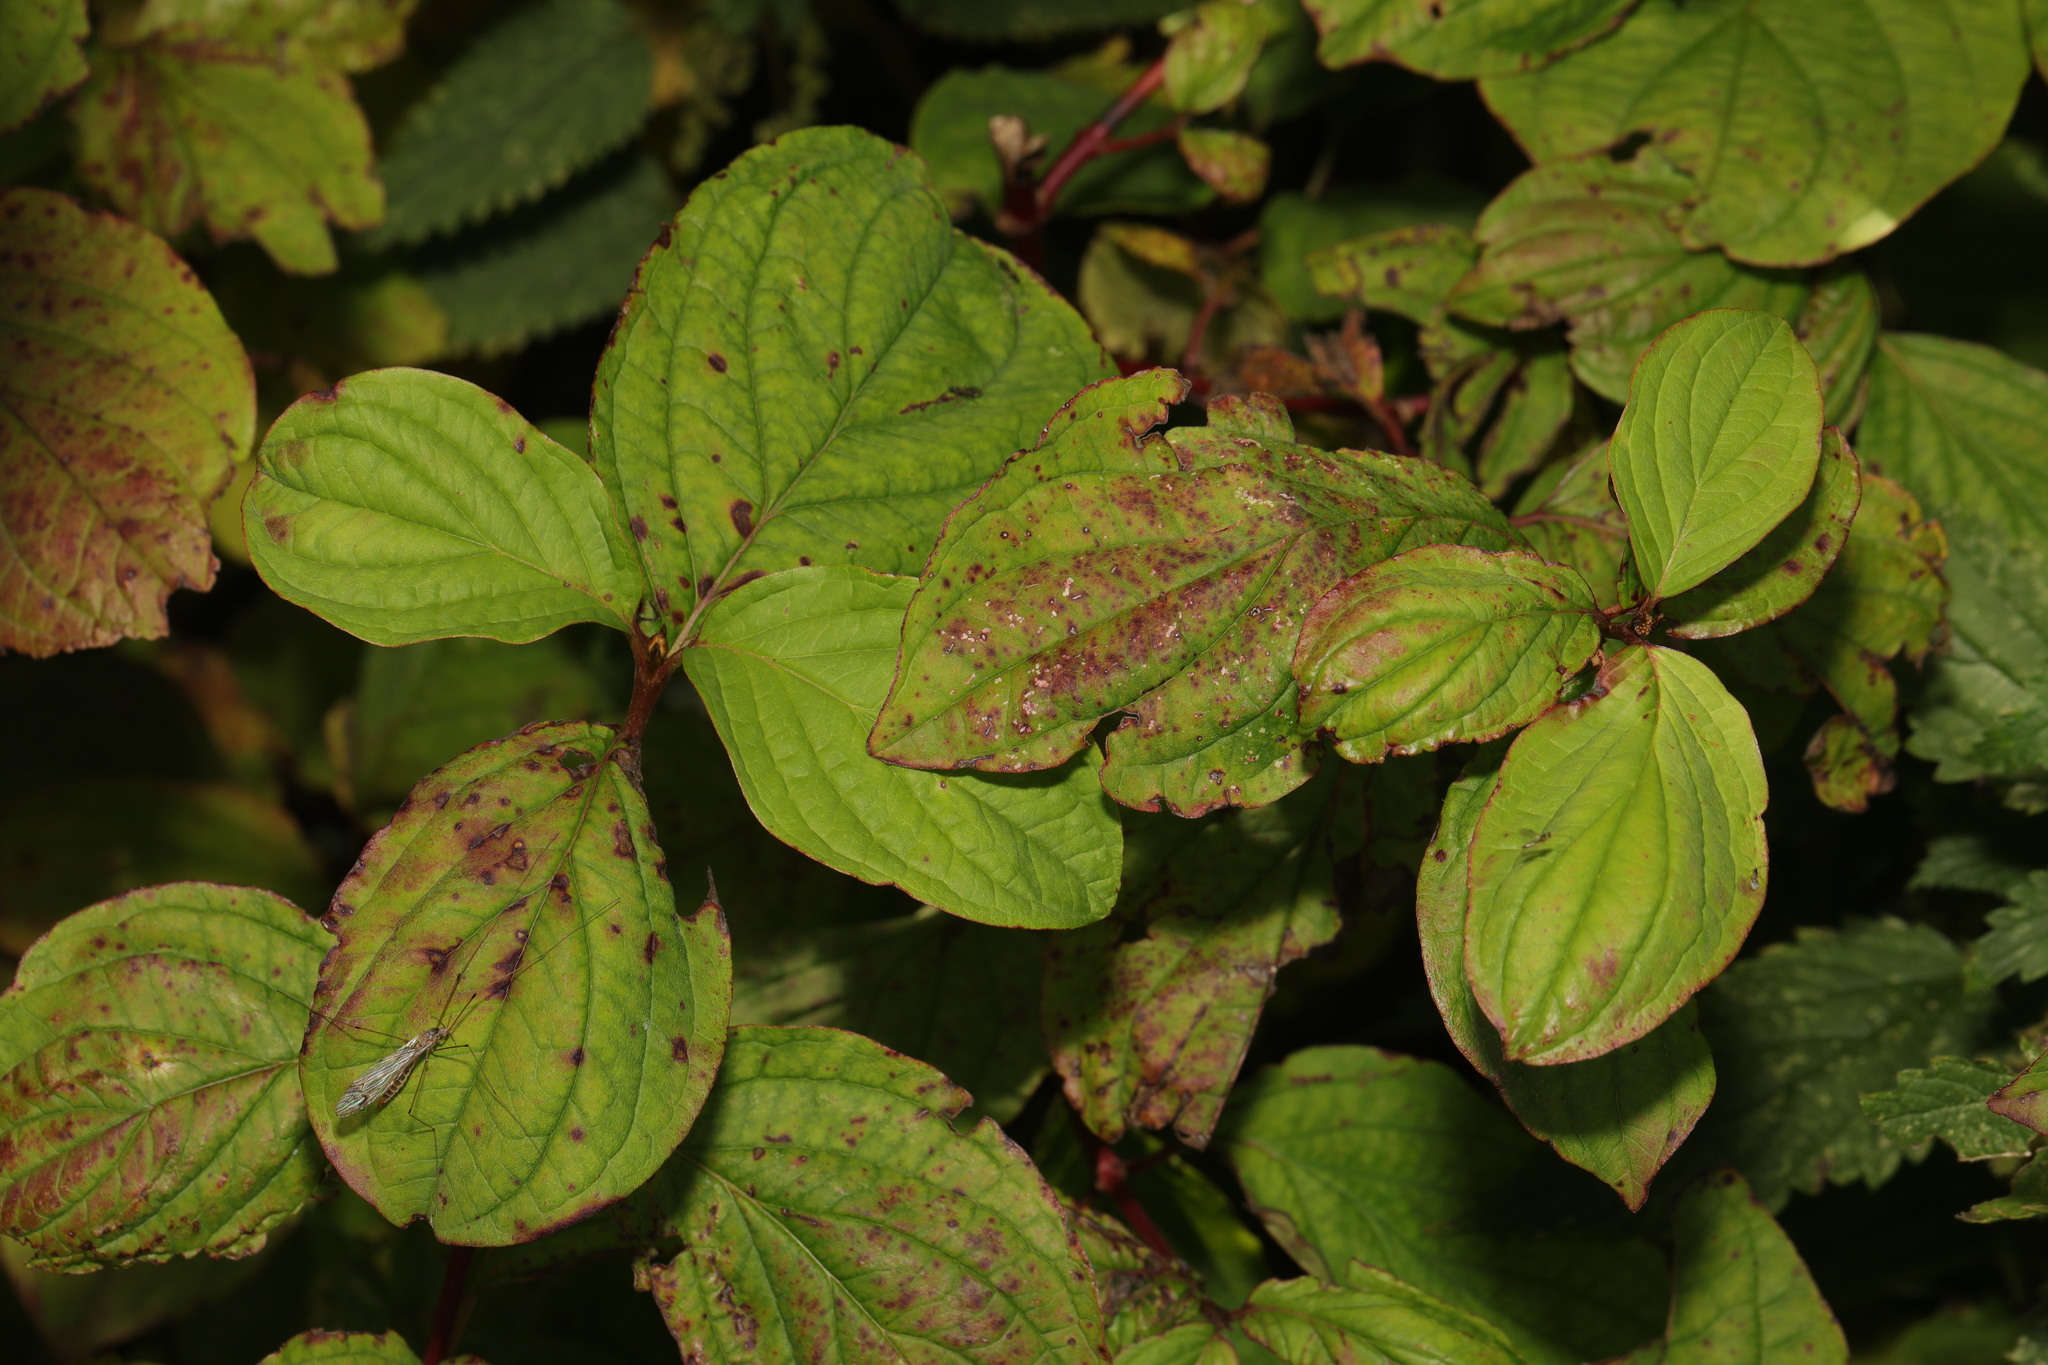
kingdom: Plantae
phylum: Tracheophyta
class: Magnoliopsida
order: Cornales
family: Cornaceae
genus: Cornus
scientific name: Cornus sanguinea
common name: Dogwood
